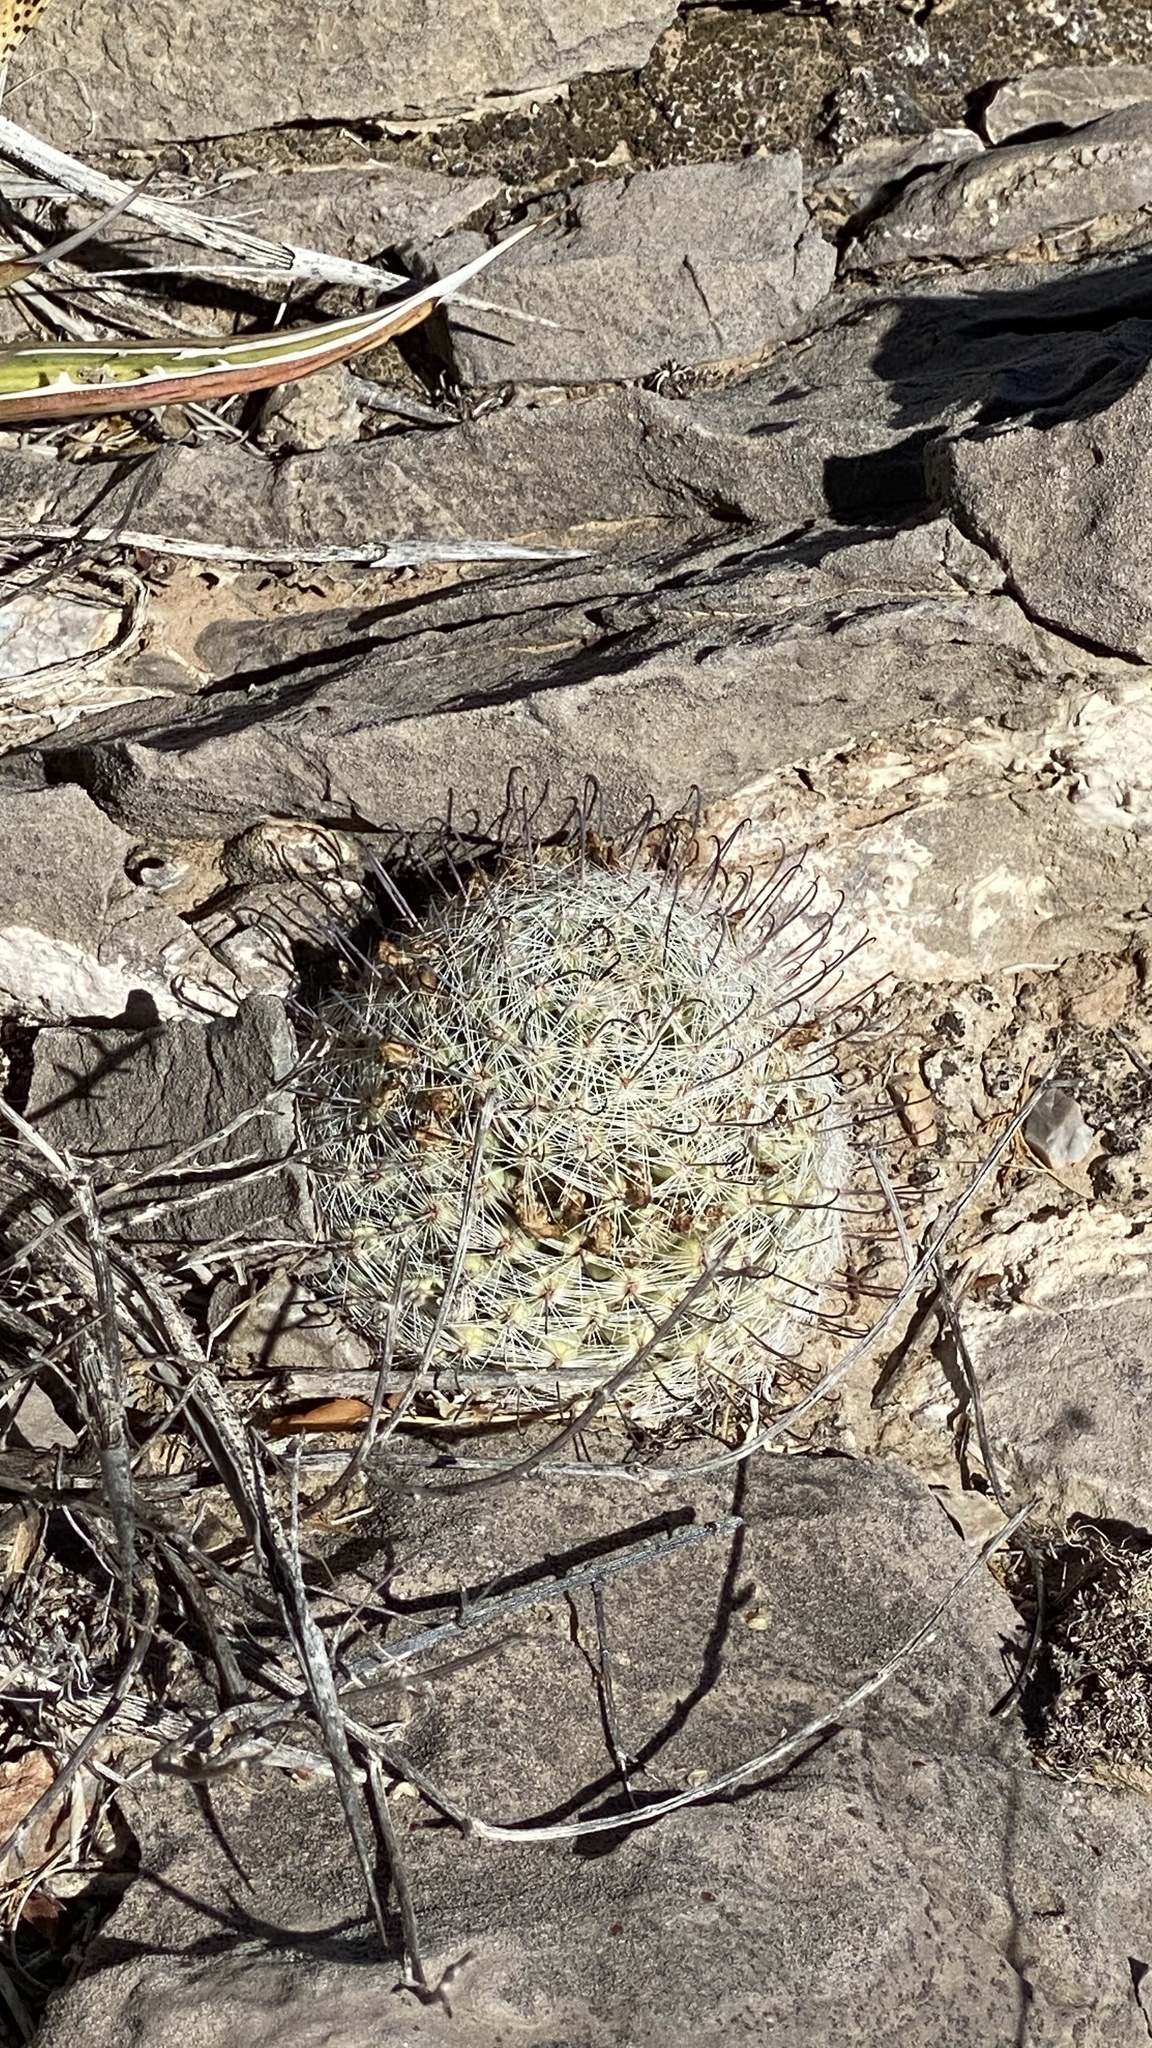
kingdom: Plantae
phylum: Tracheophyta
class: Magnoliopsida
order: Caryophyllales
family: Cactaceae
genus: Cochemiea
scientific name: Cochemiea grahamii
